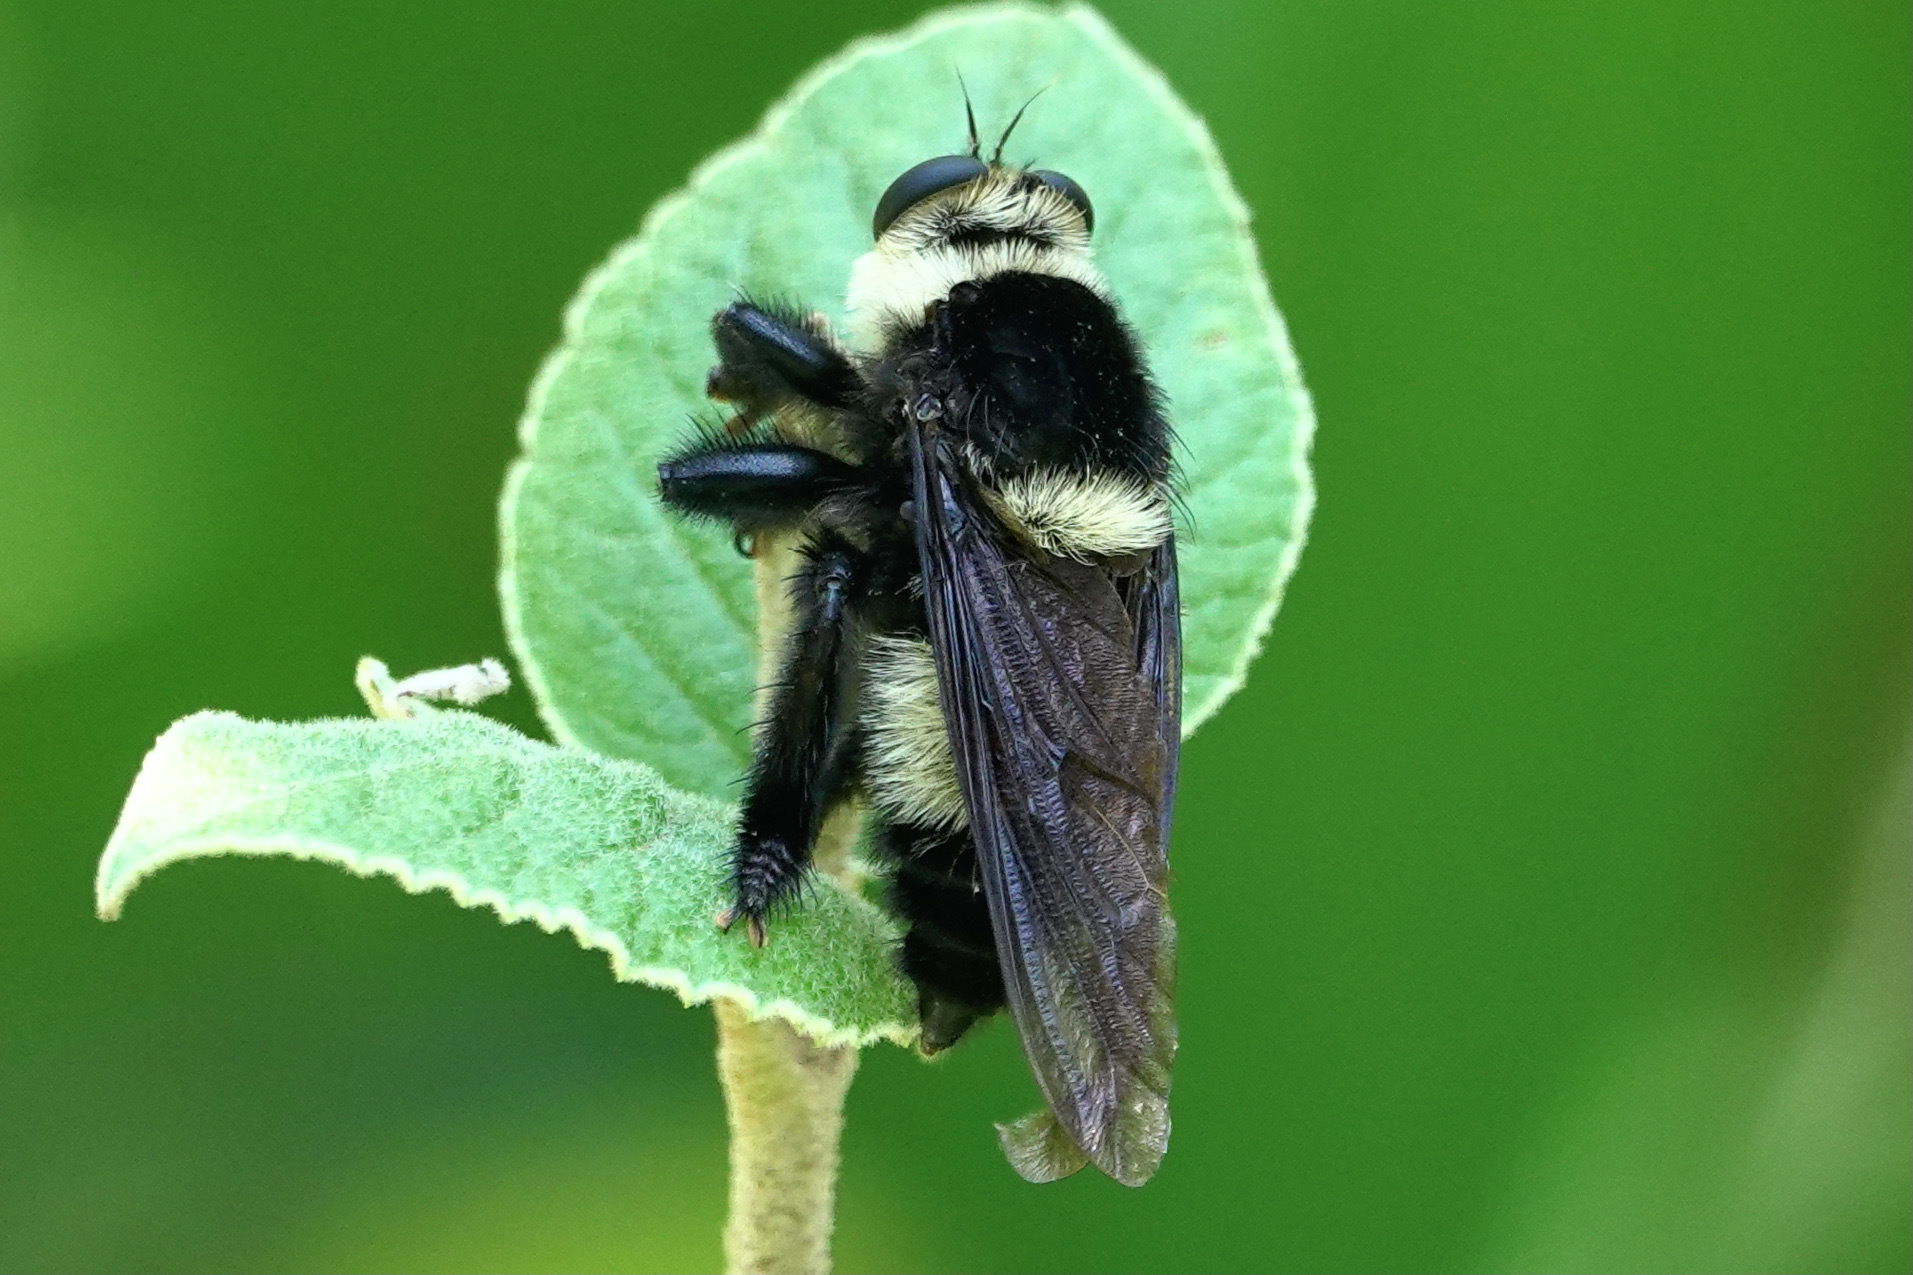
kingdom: Animalia
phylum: Arthropoda
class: Insecta
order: Diptera
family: Asilidae
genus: Mallophora
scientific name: Mallophora orcina
